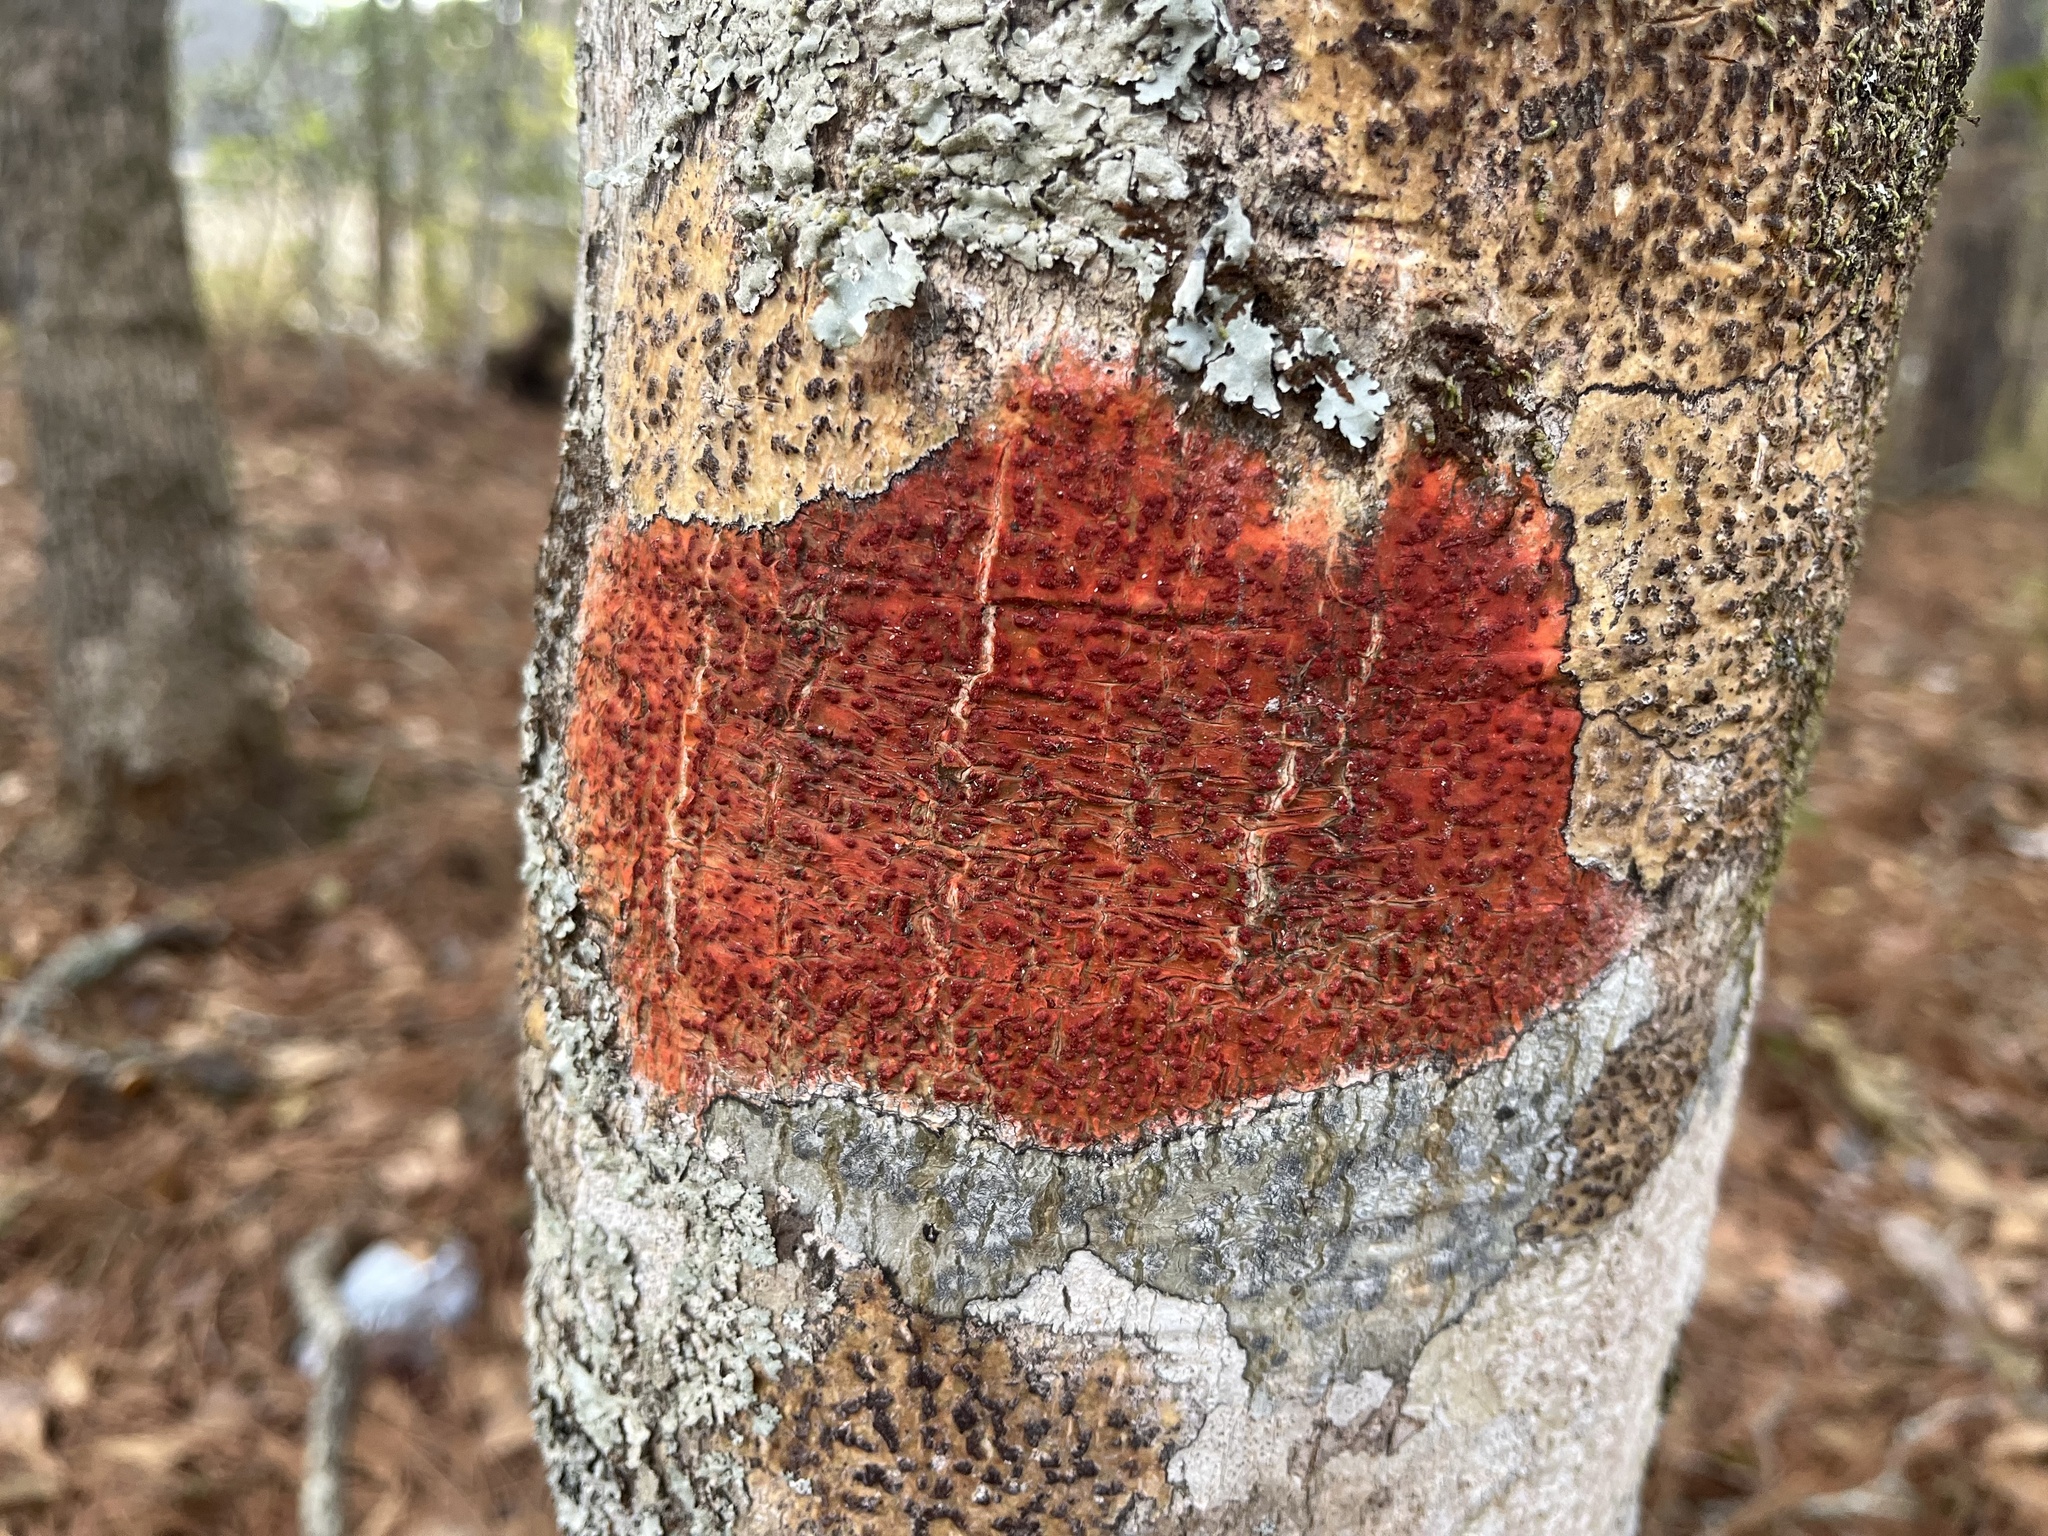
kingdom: Fungi
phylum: Ascomycota
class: Eurotiomycetes
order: Pyrenulales
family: Pyrenulaceae
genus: Pyrenula
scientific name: Pyrenula cruenta
